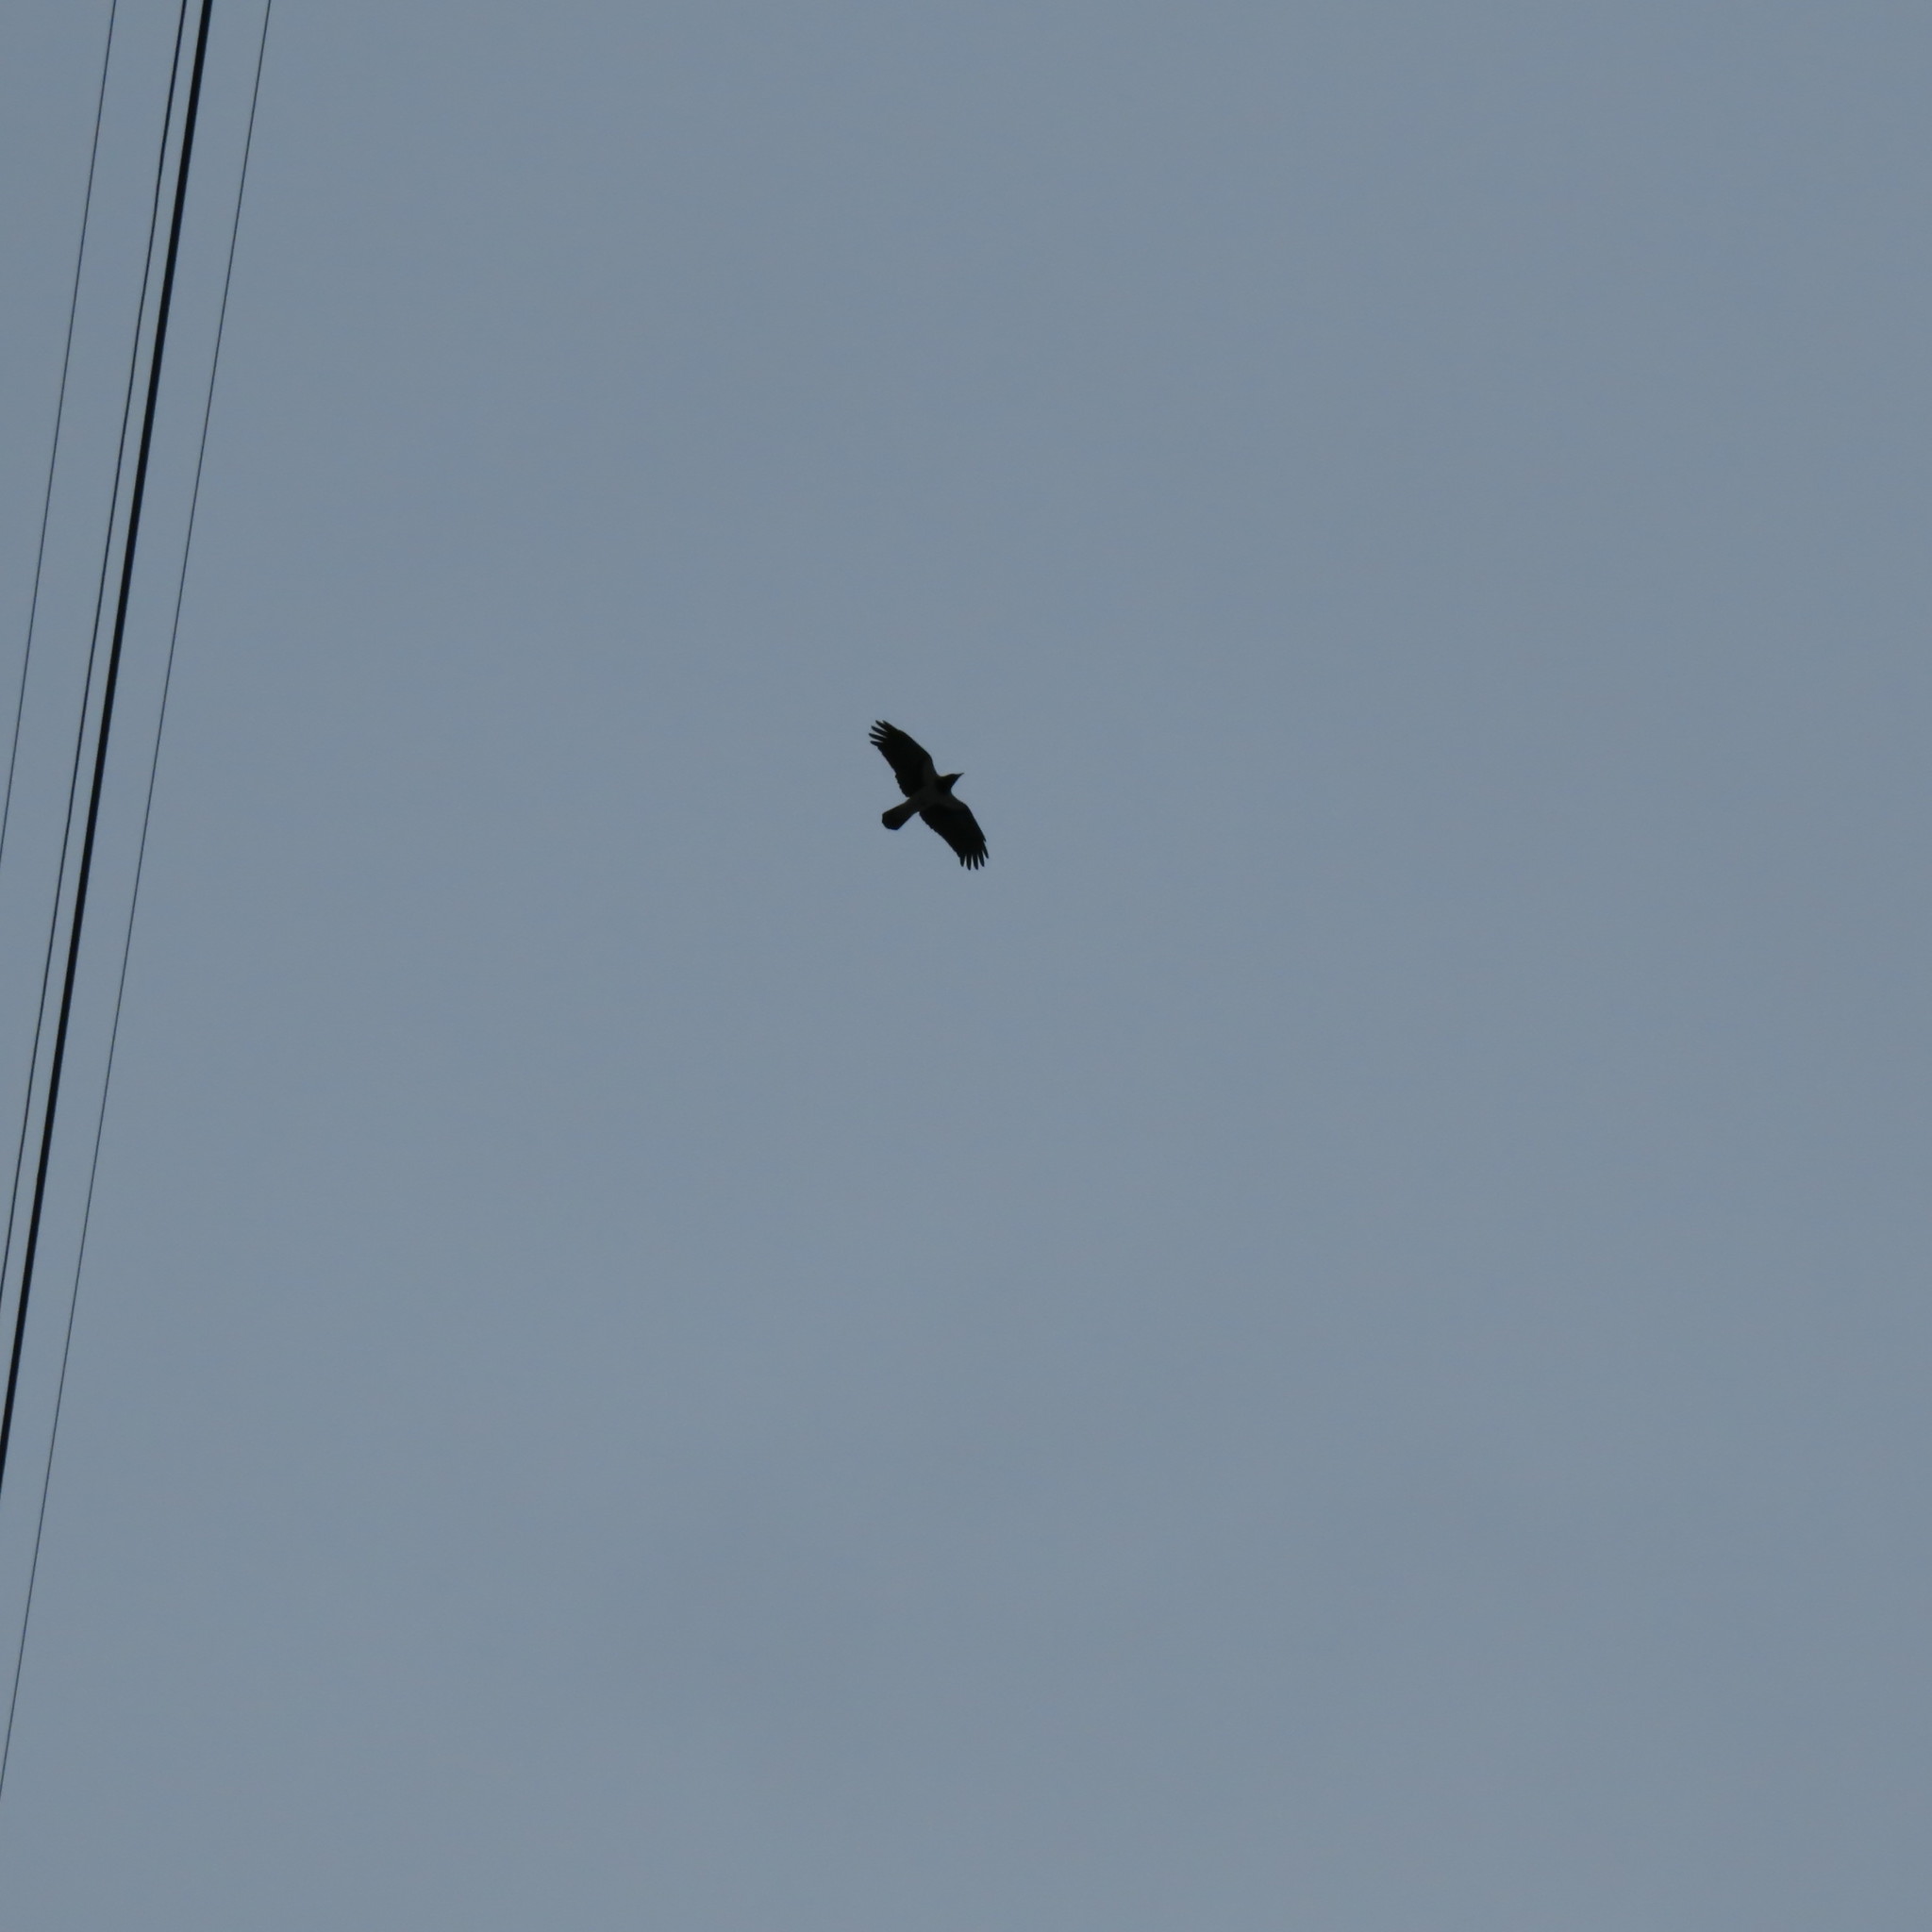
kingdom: Animalia
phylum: Chordata
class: Aves
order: Passeriformes
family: Corvidae
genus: Corvus
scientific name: Corvus cornix
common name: Hooded crow
